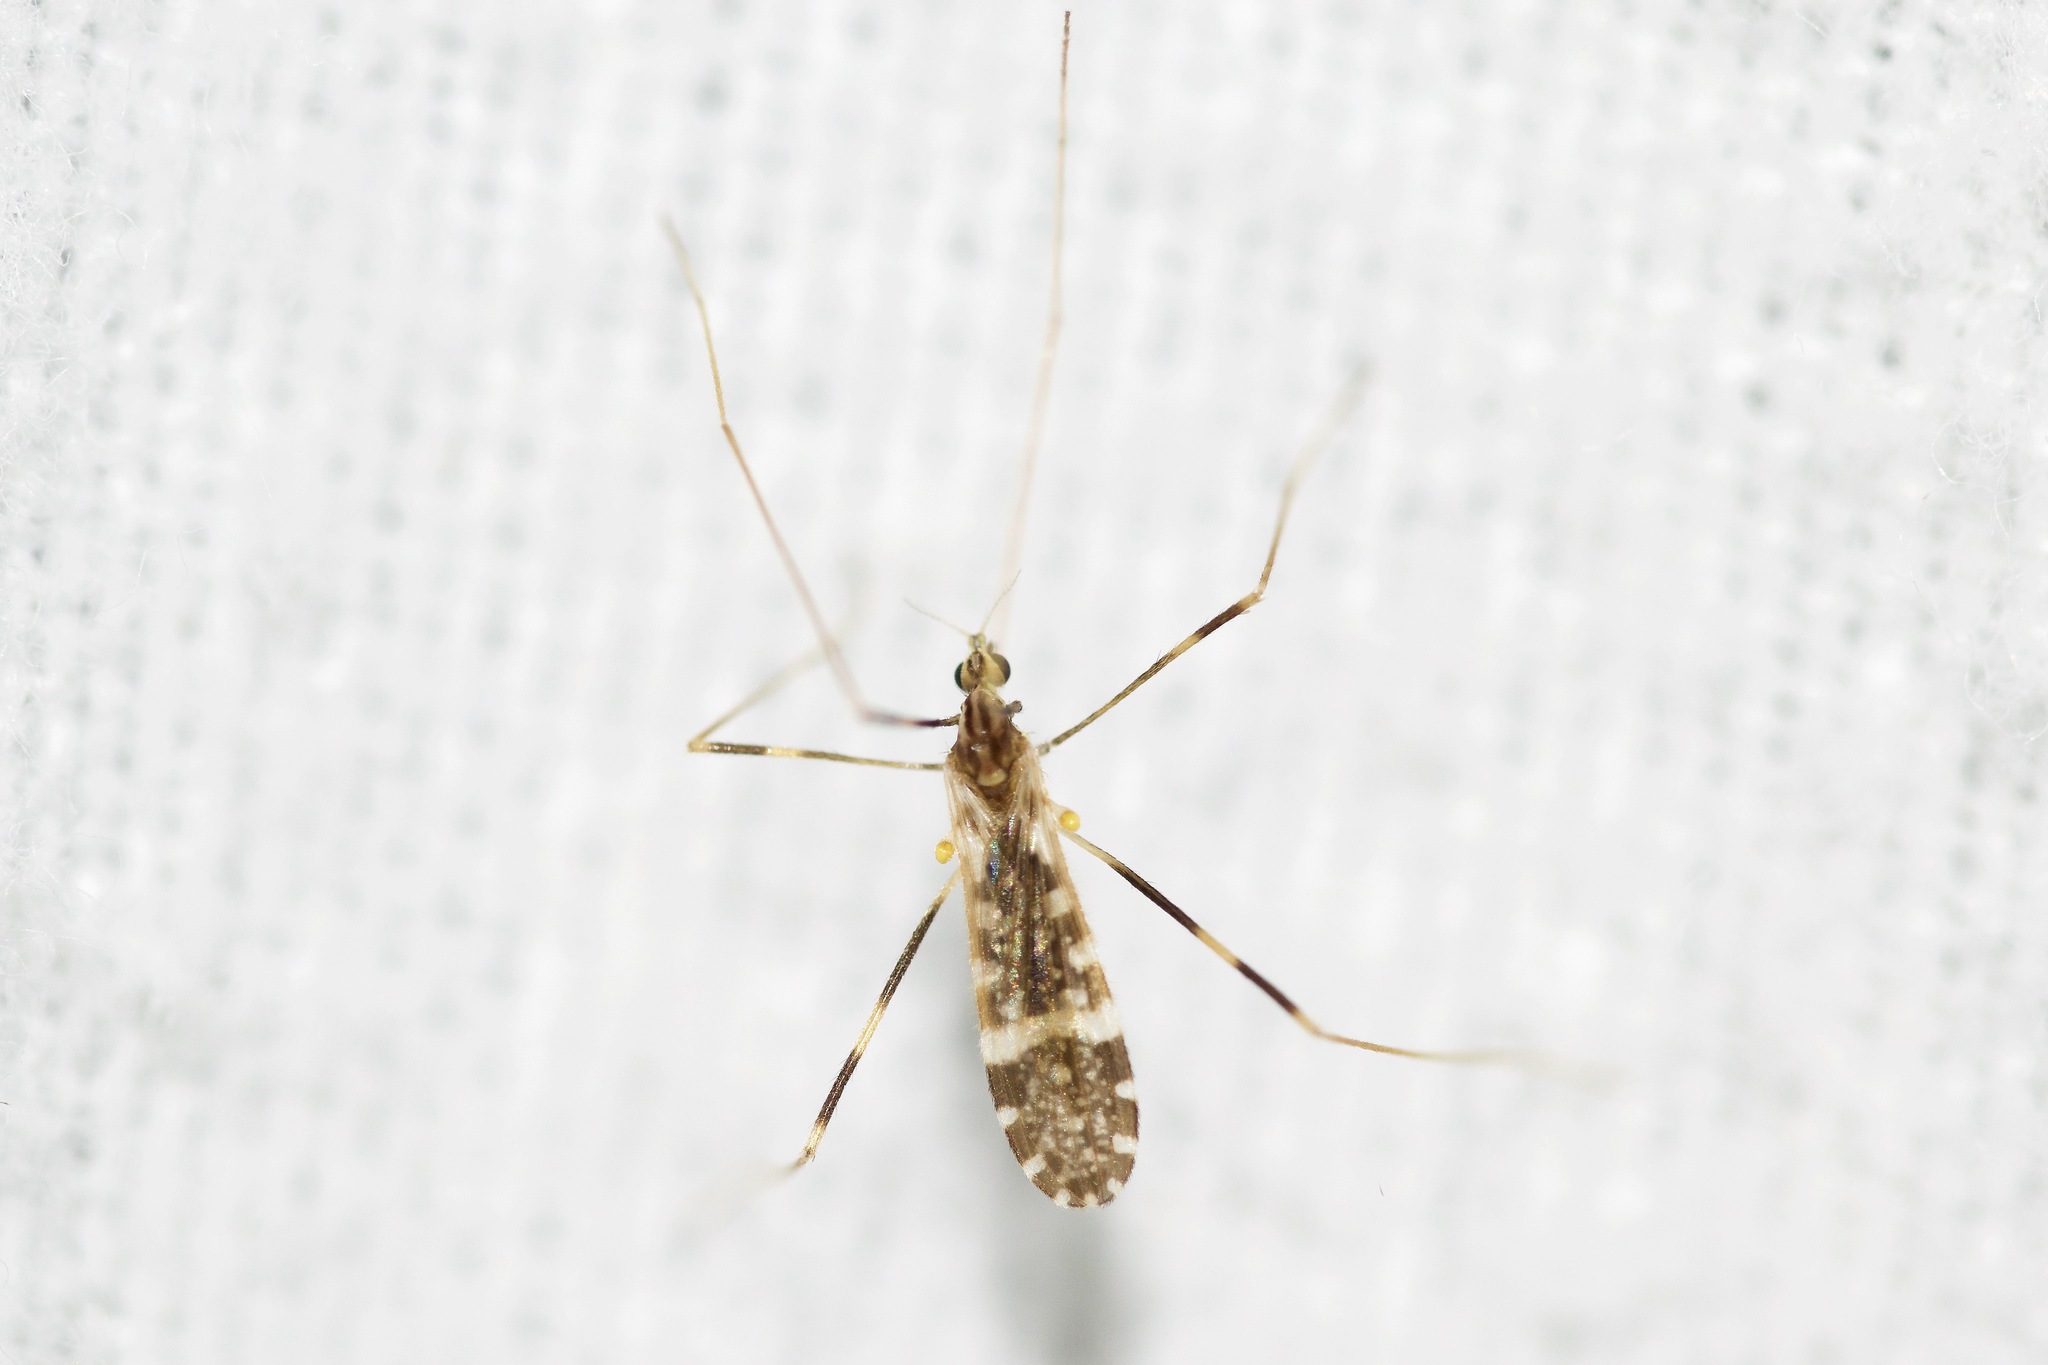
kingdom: Animalia
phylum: Arthropoda
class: Insecta
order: Diptera
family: Limoniidae
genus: Erioptera
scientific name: Erioptera caliptera
